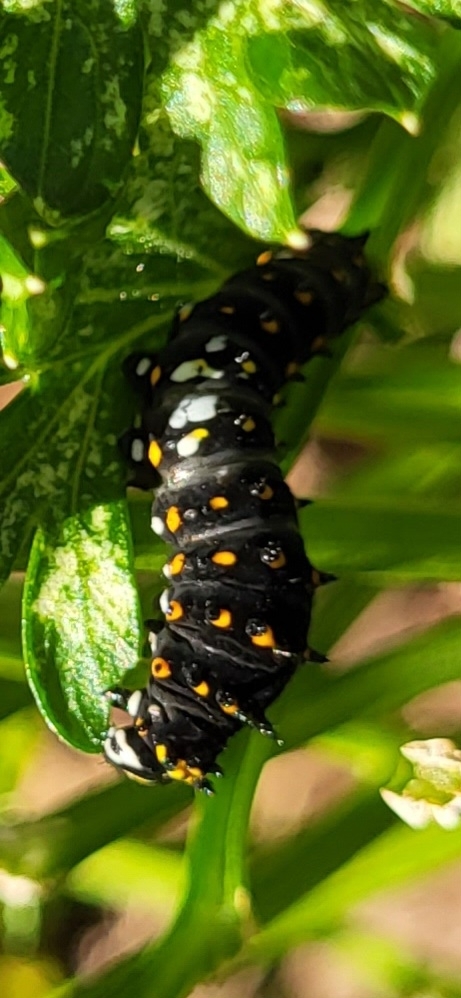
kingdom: Animalia
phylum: Arthropoda
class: Insecta
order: Lepidoptera
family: Papilionidae
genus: Papilio
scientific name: Papilio polyxenes
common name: Black swallowtail
